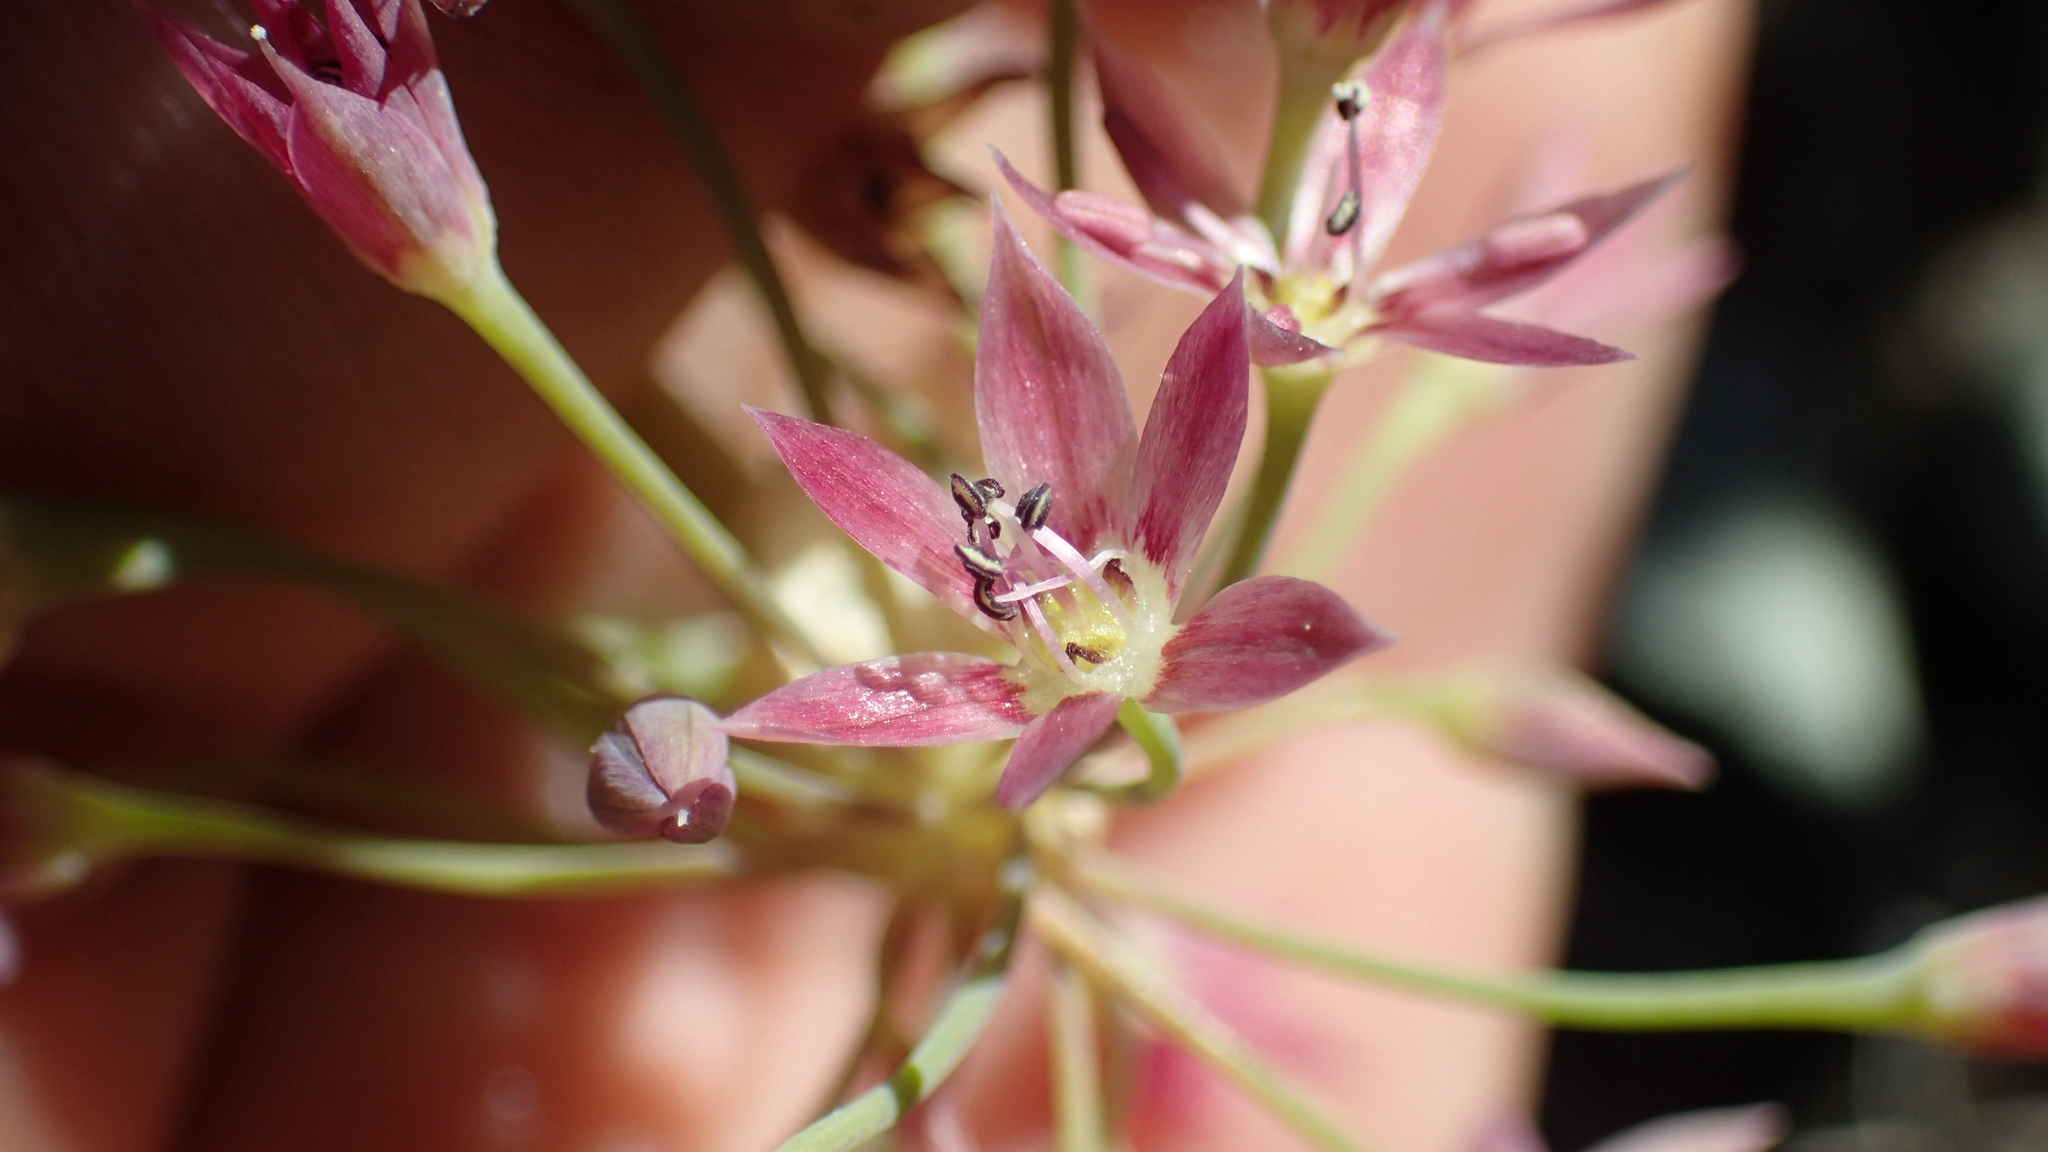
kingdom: Plantae
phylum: Tracheophyta
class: Liliopsida
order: Asparagales
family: Amaryllidaceae
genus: Allium
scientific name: Allium campanulatum
